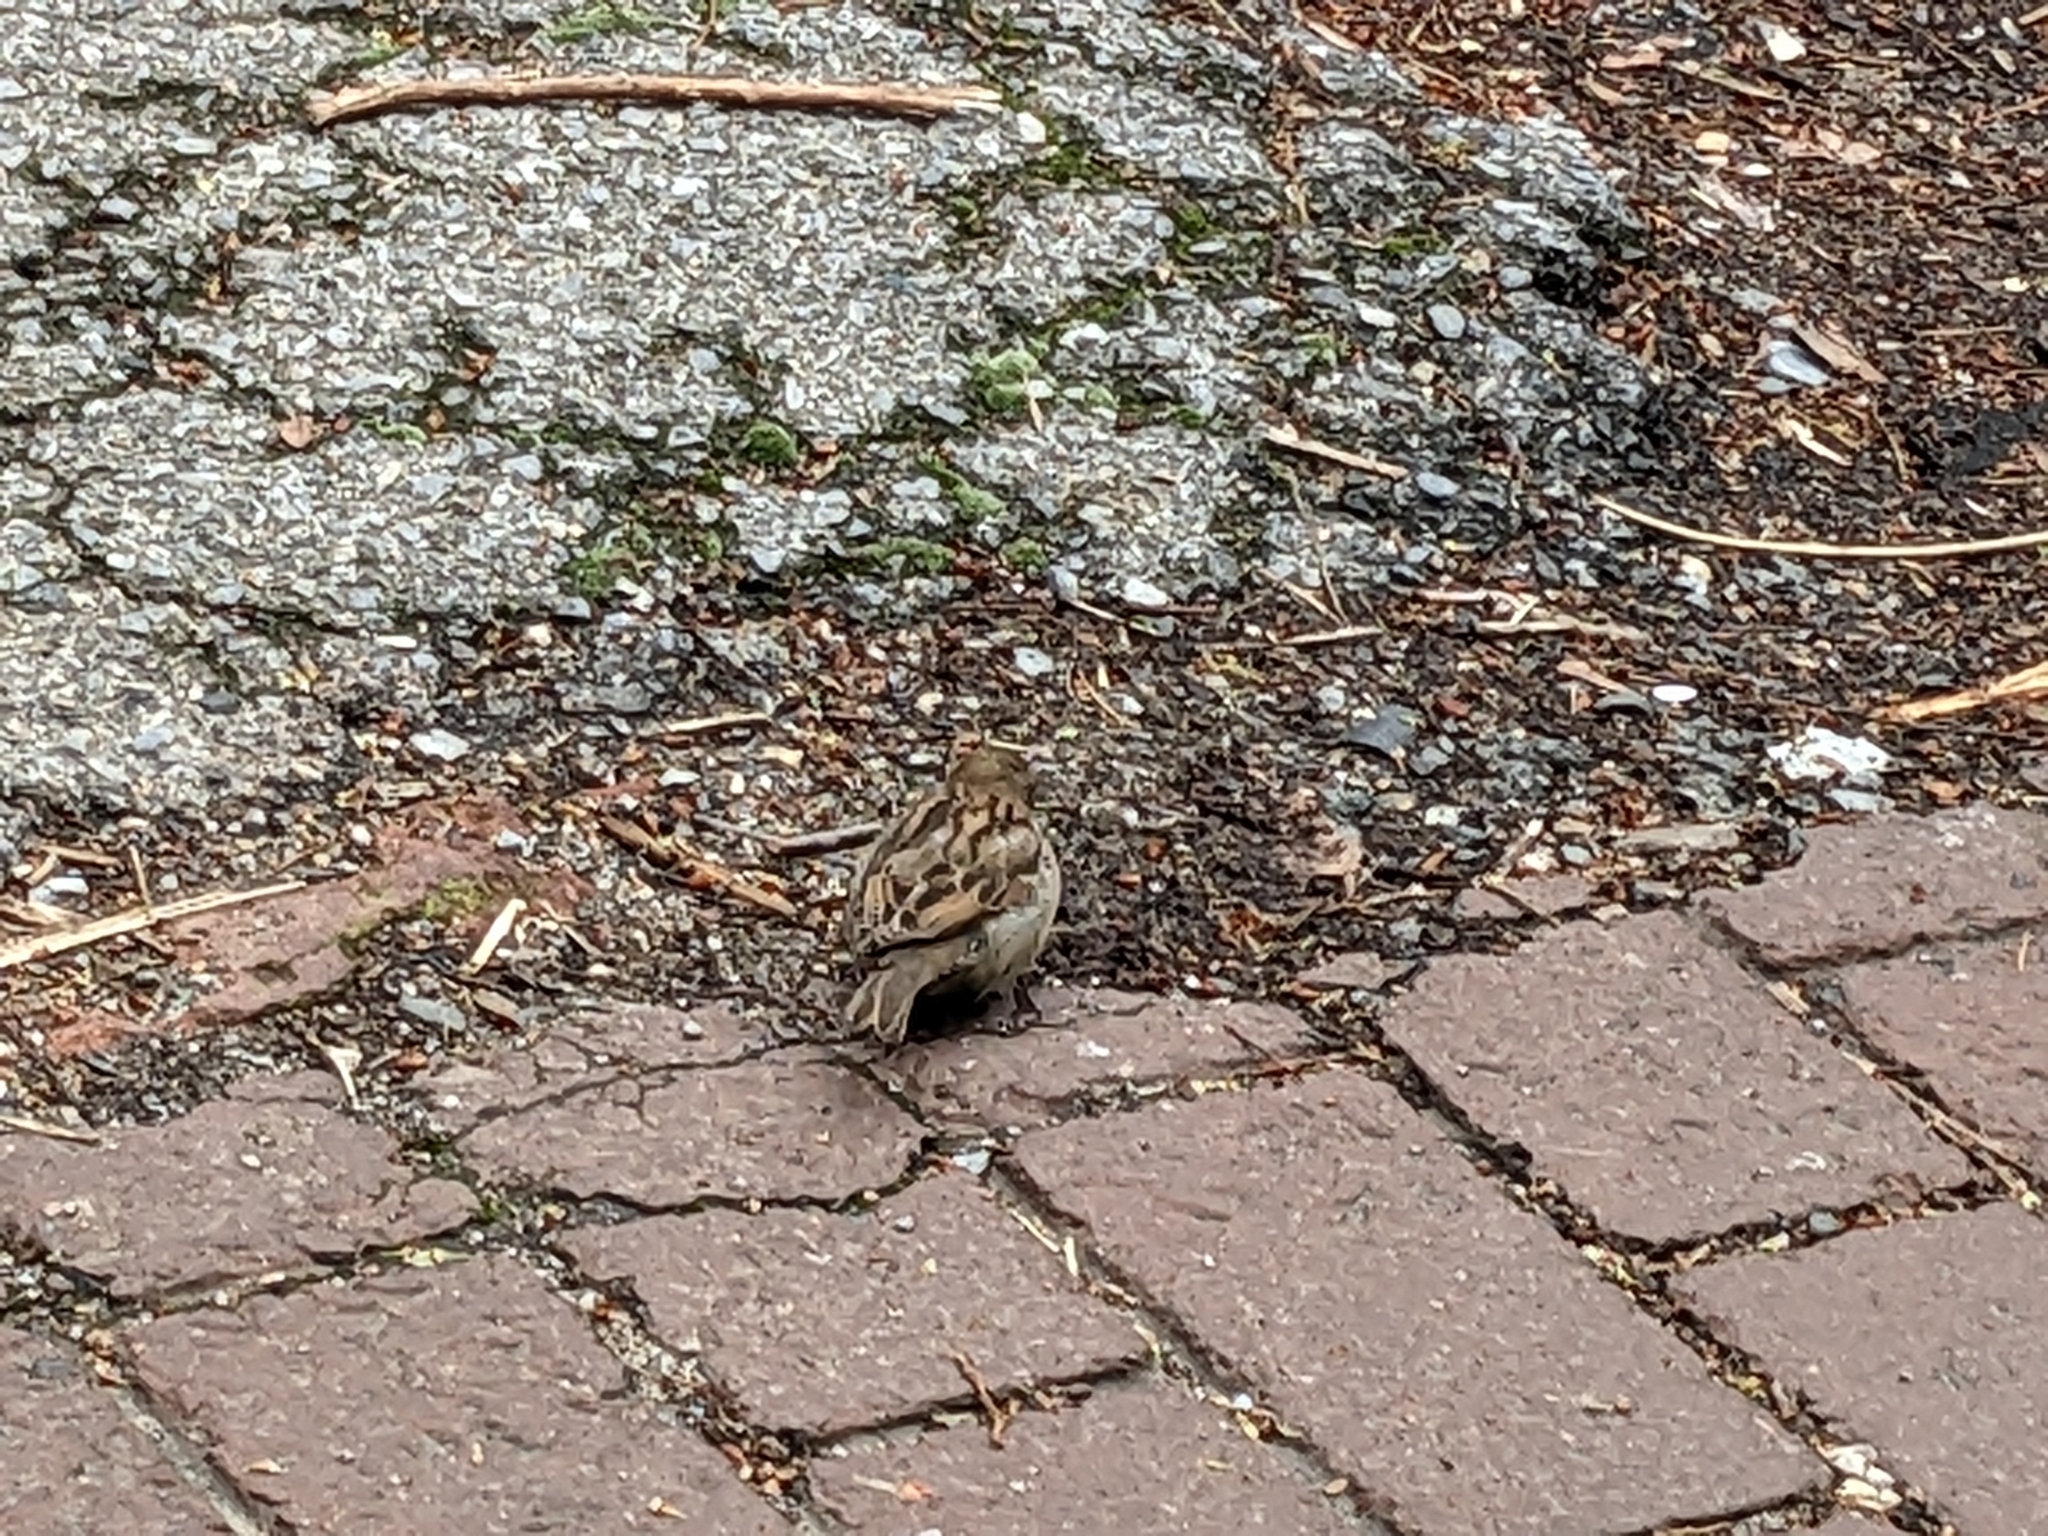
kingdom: Animalia
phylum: Chordata
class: Aves
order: Passeriformes
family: Passeridae
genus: Passer
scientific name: Passer domesticus
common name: House sparrow
